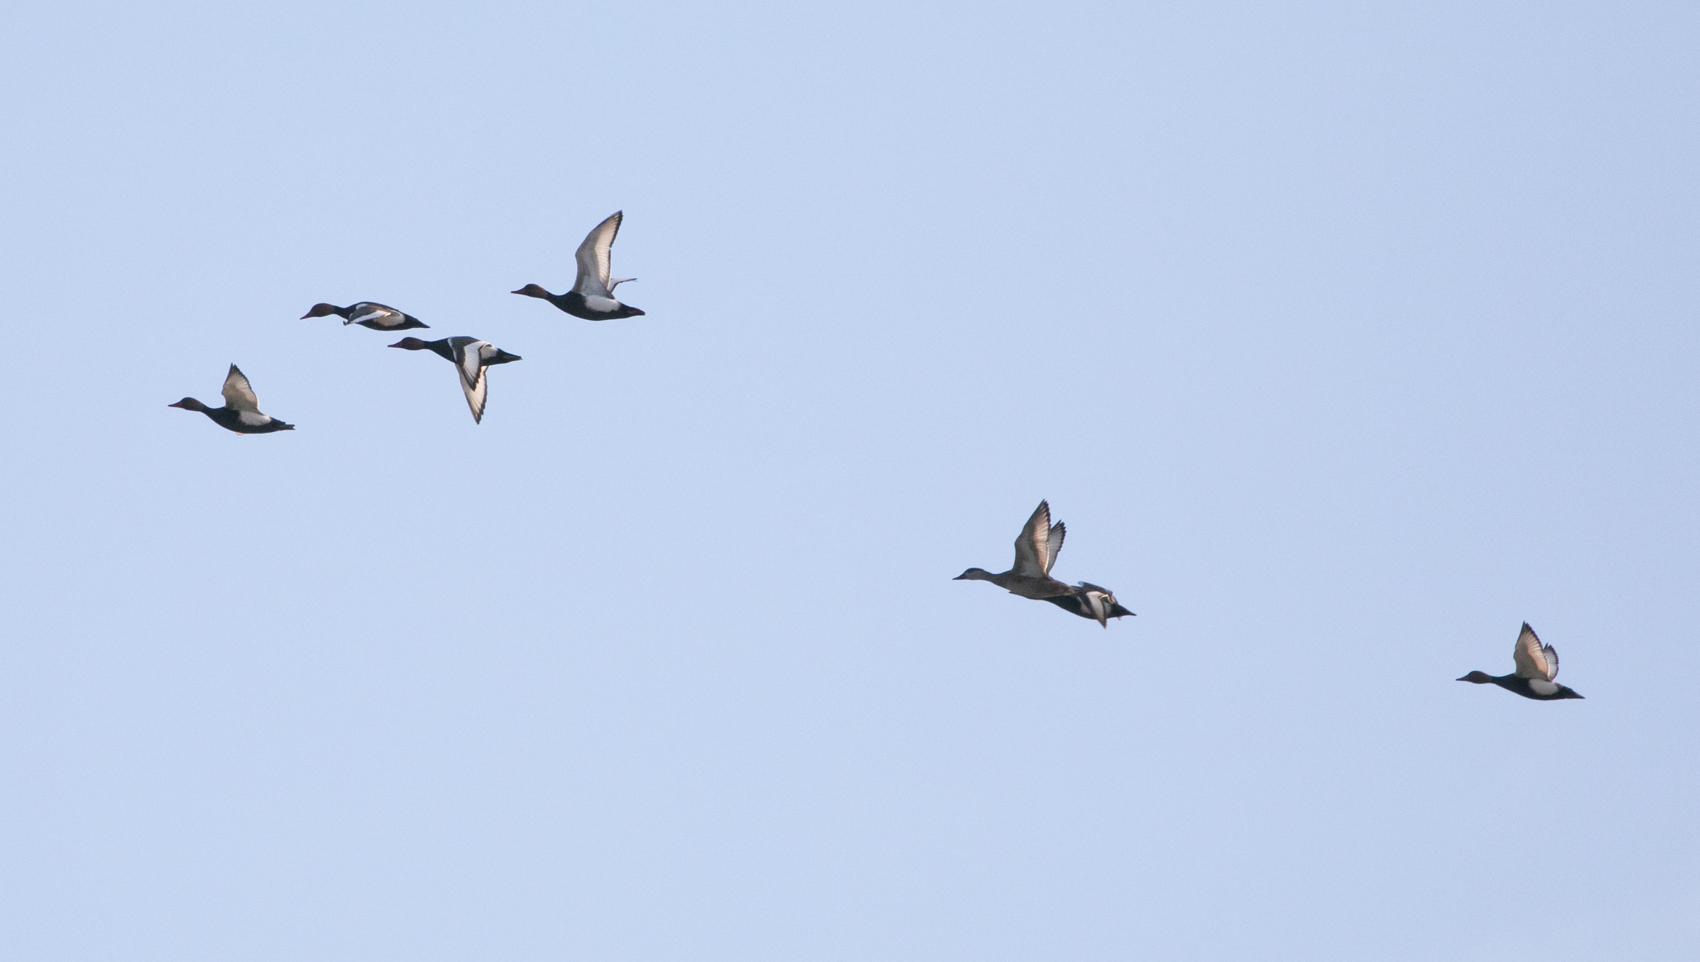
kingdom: Animalia
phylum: Chordata
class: Aves
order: Anseriformes
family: Anatidae
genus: Netta
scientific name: Netta rufina
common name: Red-crested pochard
